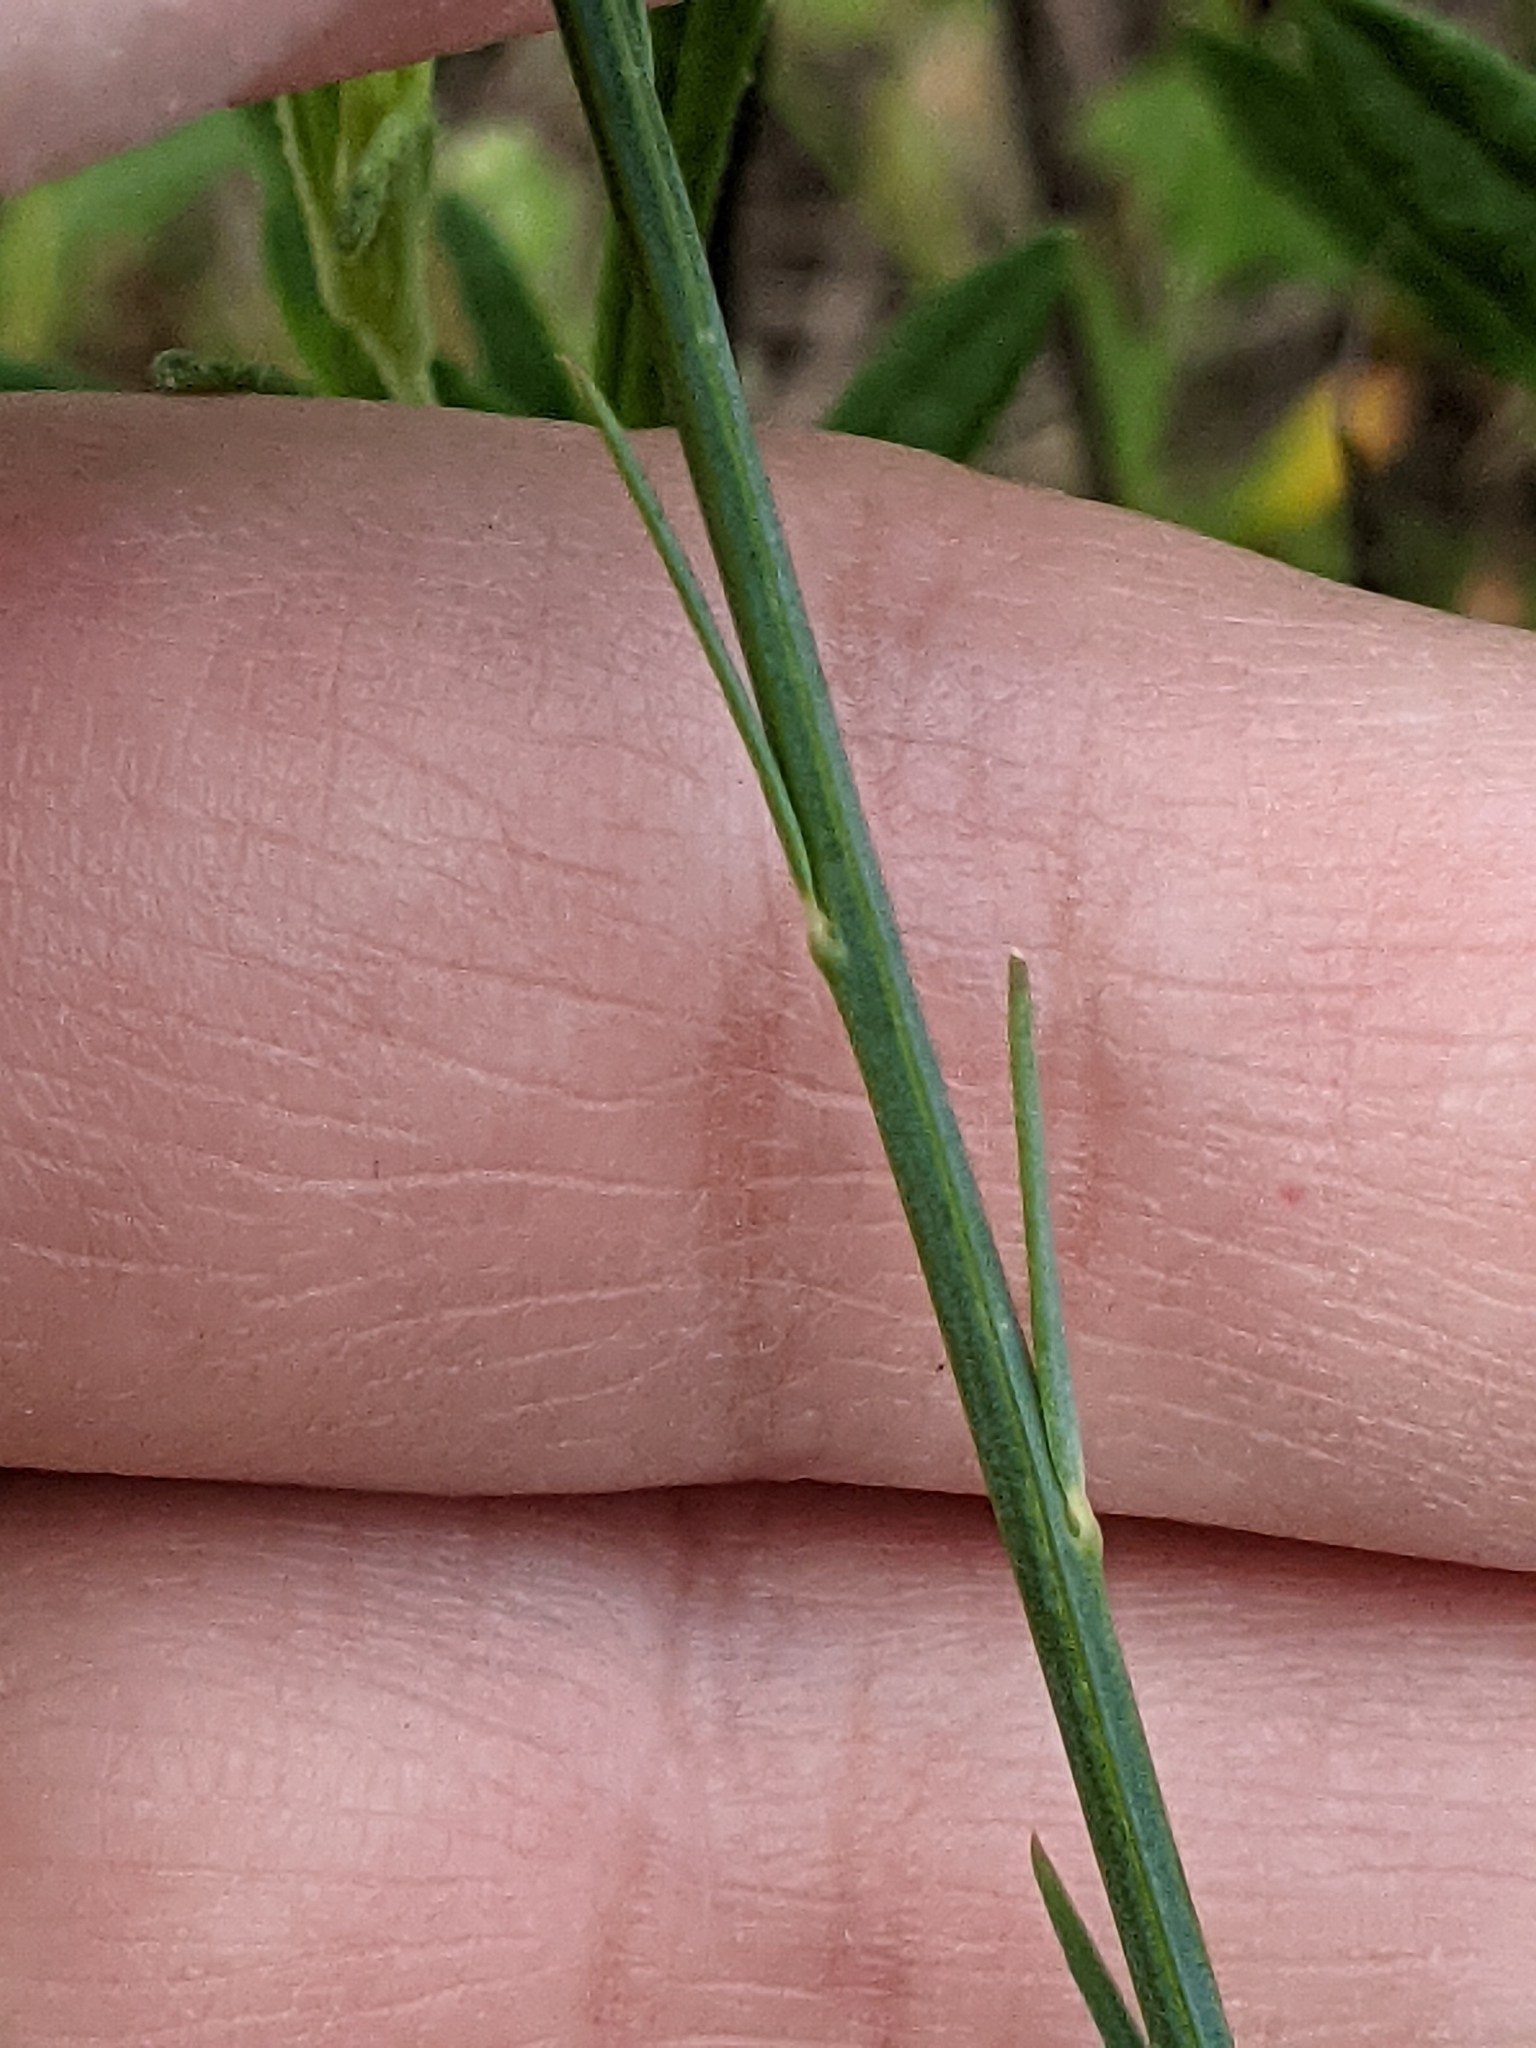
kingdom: Plantae
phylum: Tracheophyta
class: Magnoliopsida
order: Fabales
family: Polygalaceae
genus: Polygala
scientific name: Polygala incarnata
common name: Pink milkwort
